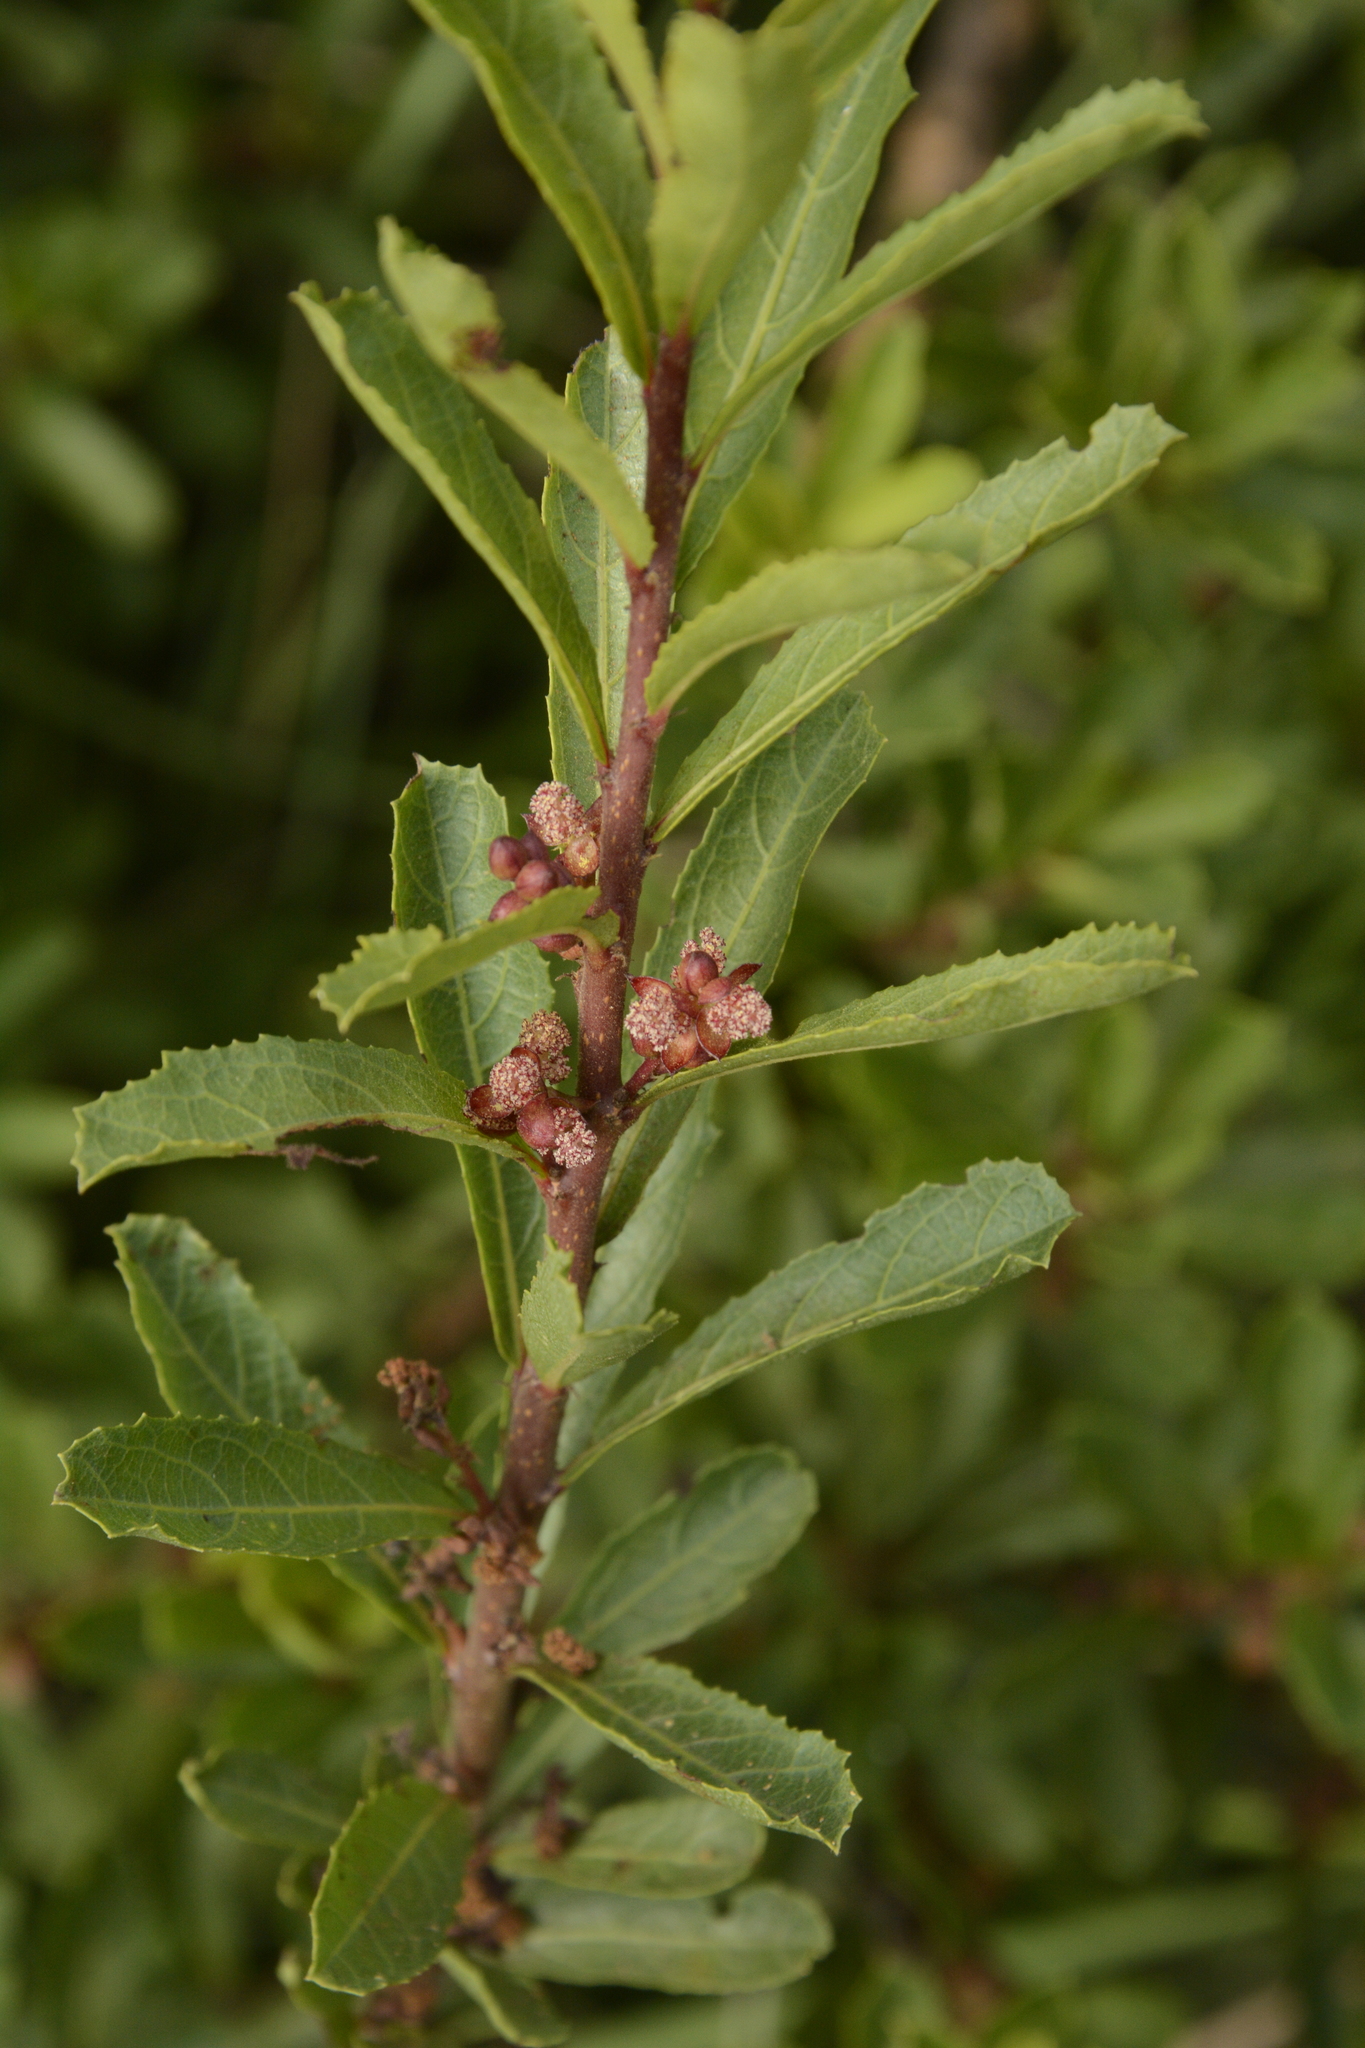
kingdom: Plantae
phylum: Tracheophyta
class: Magnoliopsida
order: Malpighiales
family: Euphorbiaceae
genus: Homonoia
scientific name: Homonoia retusa
